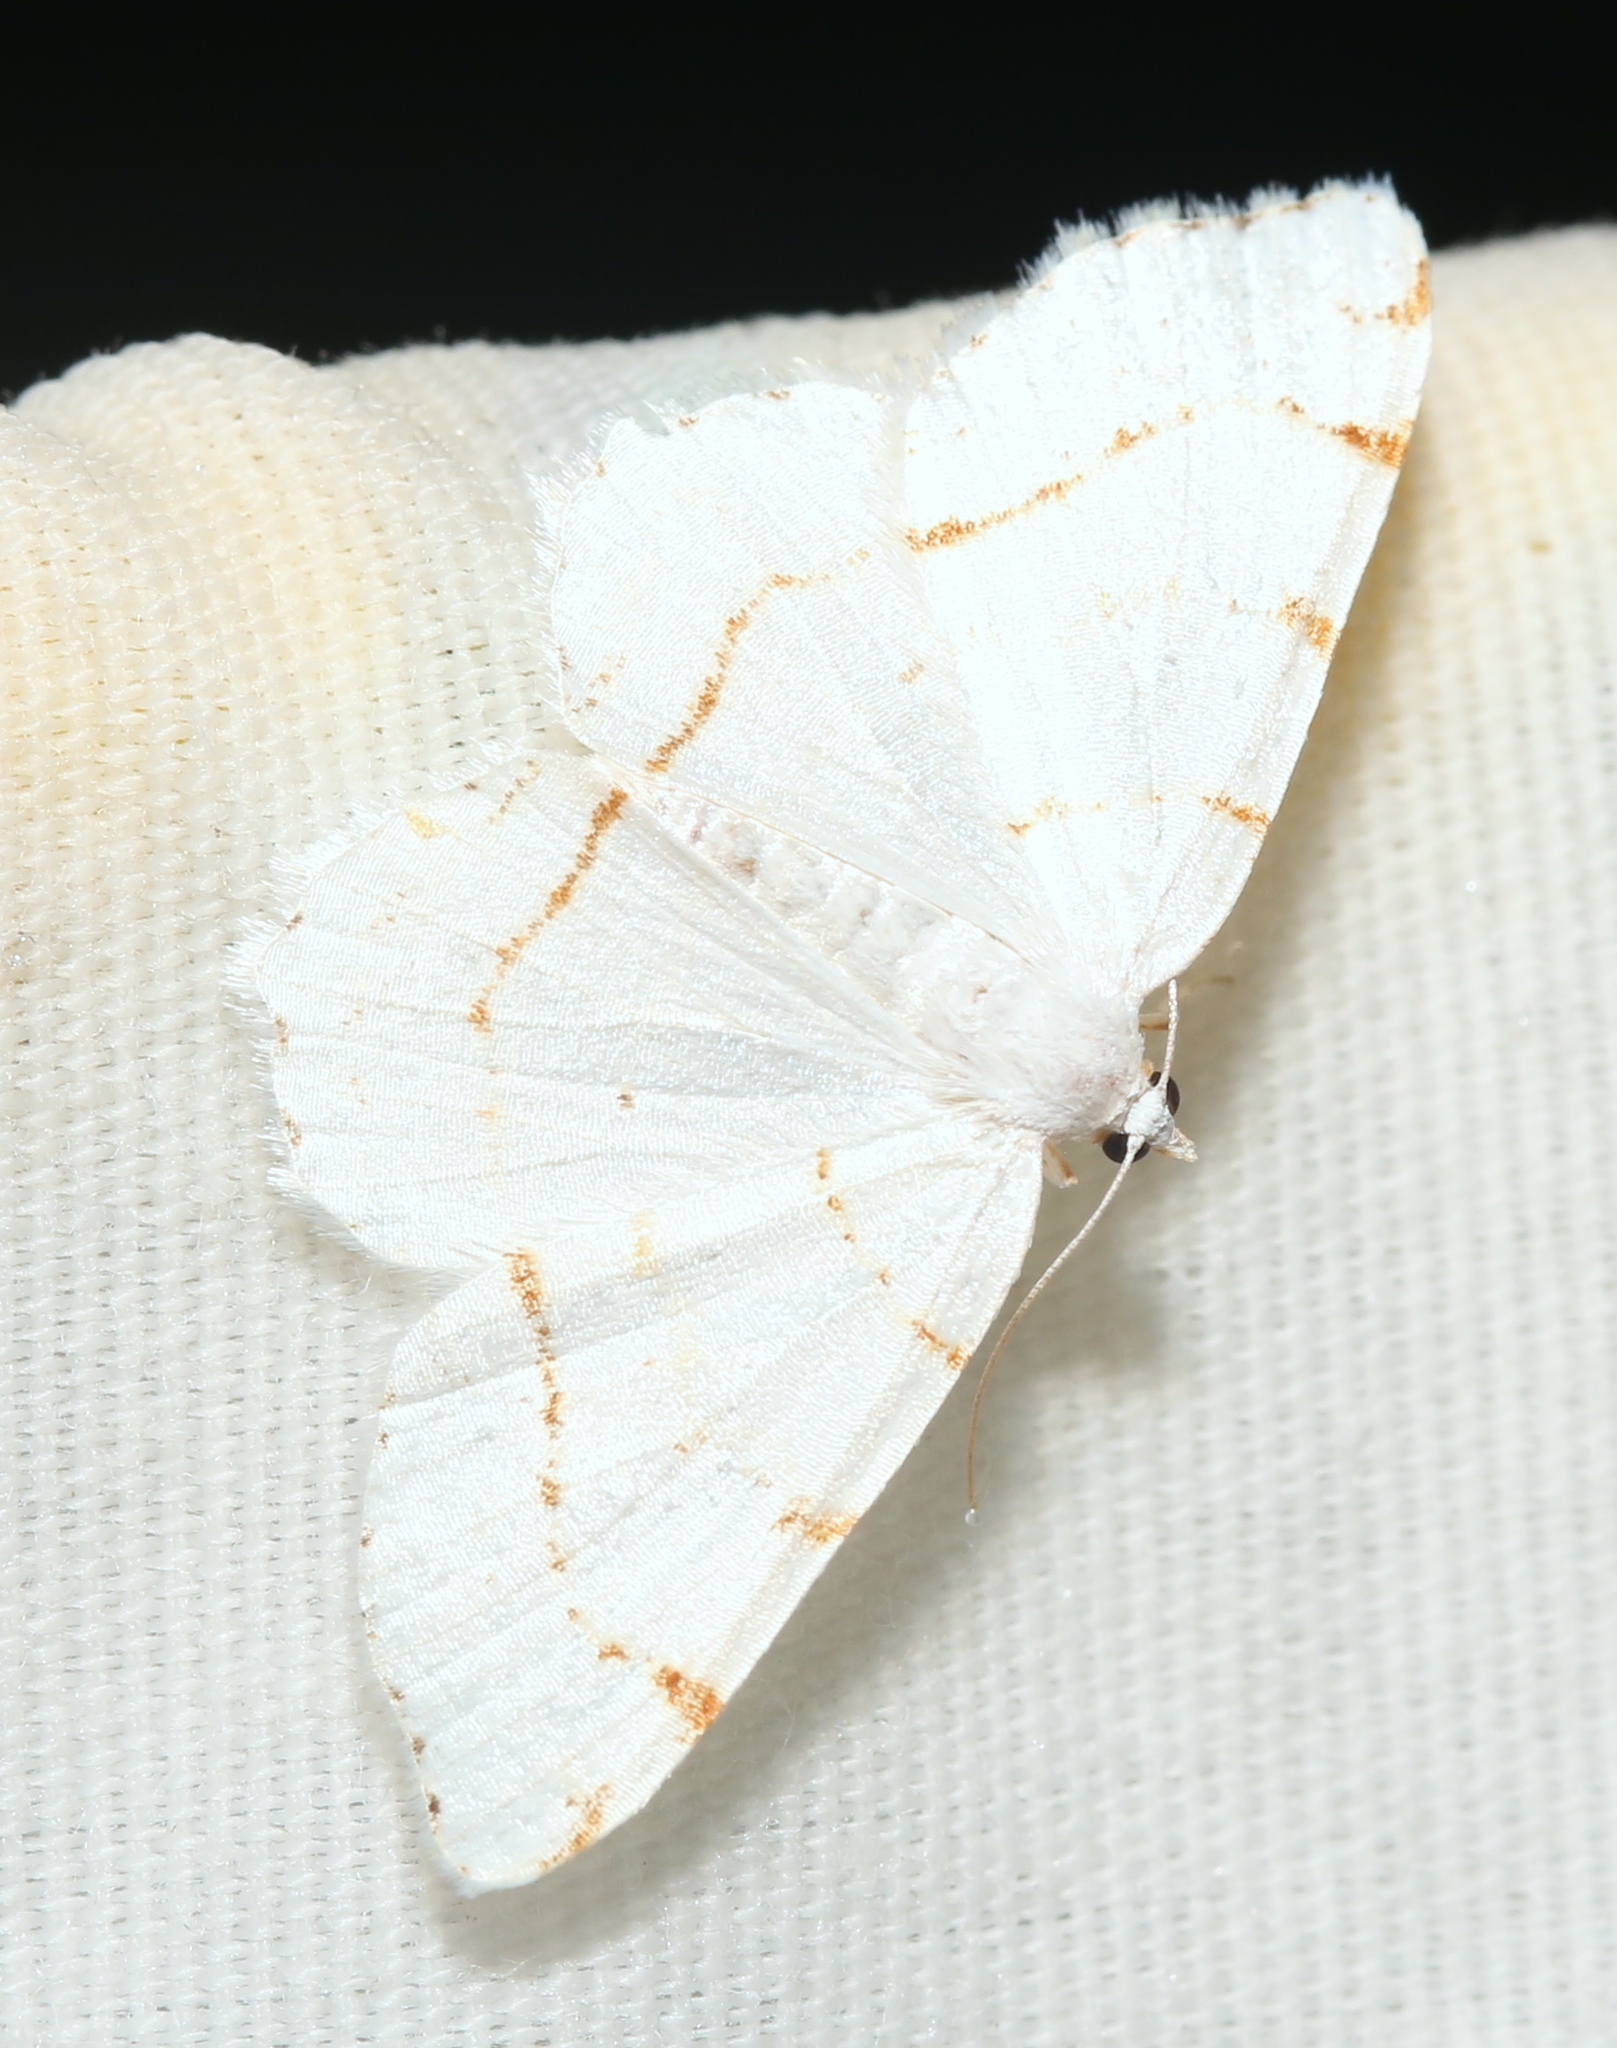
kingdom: Animalia
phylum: Arthropoda
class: Insecta
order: Lepidoptera
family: Geometridae
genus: Macaria
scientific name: Macaria pustularia
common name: Lesser maple spanworm moth
